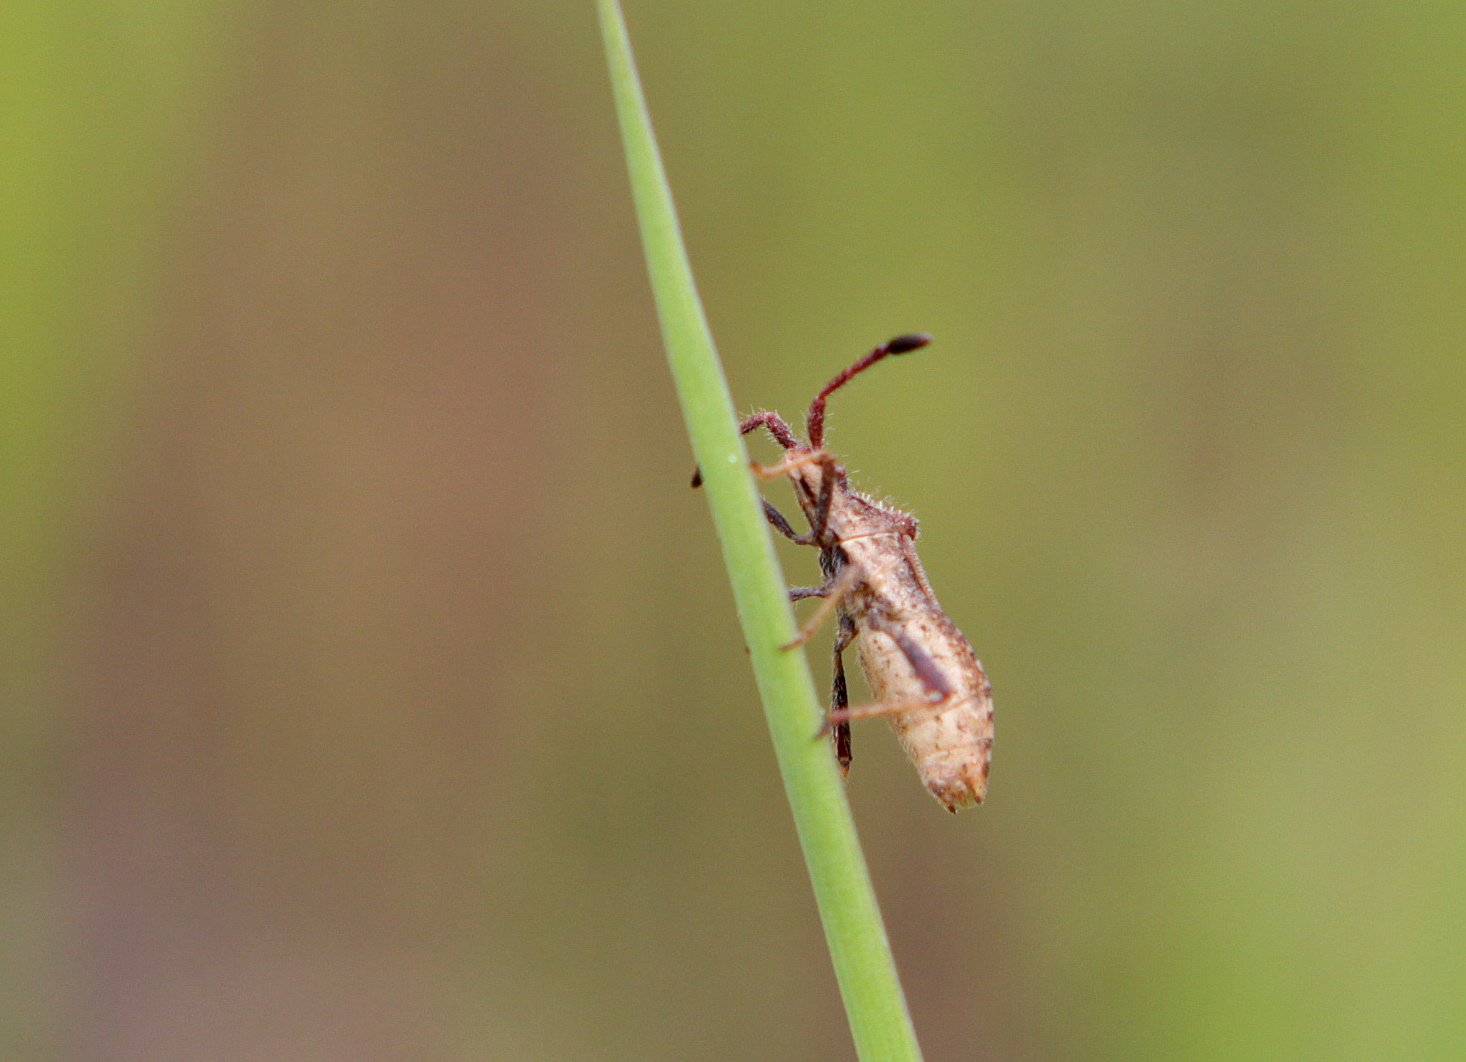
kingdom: Animalia
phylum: Arthropoda
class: Insecta
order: Hemiptera
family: Coreidae
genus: Coriomeris
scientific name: Coriomeris denticulatus
